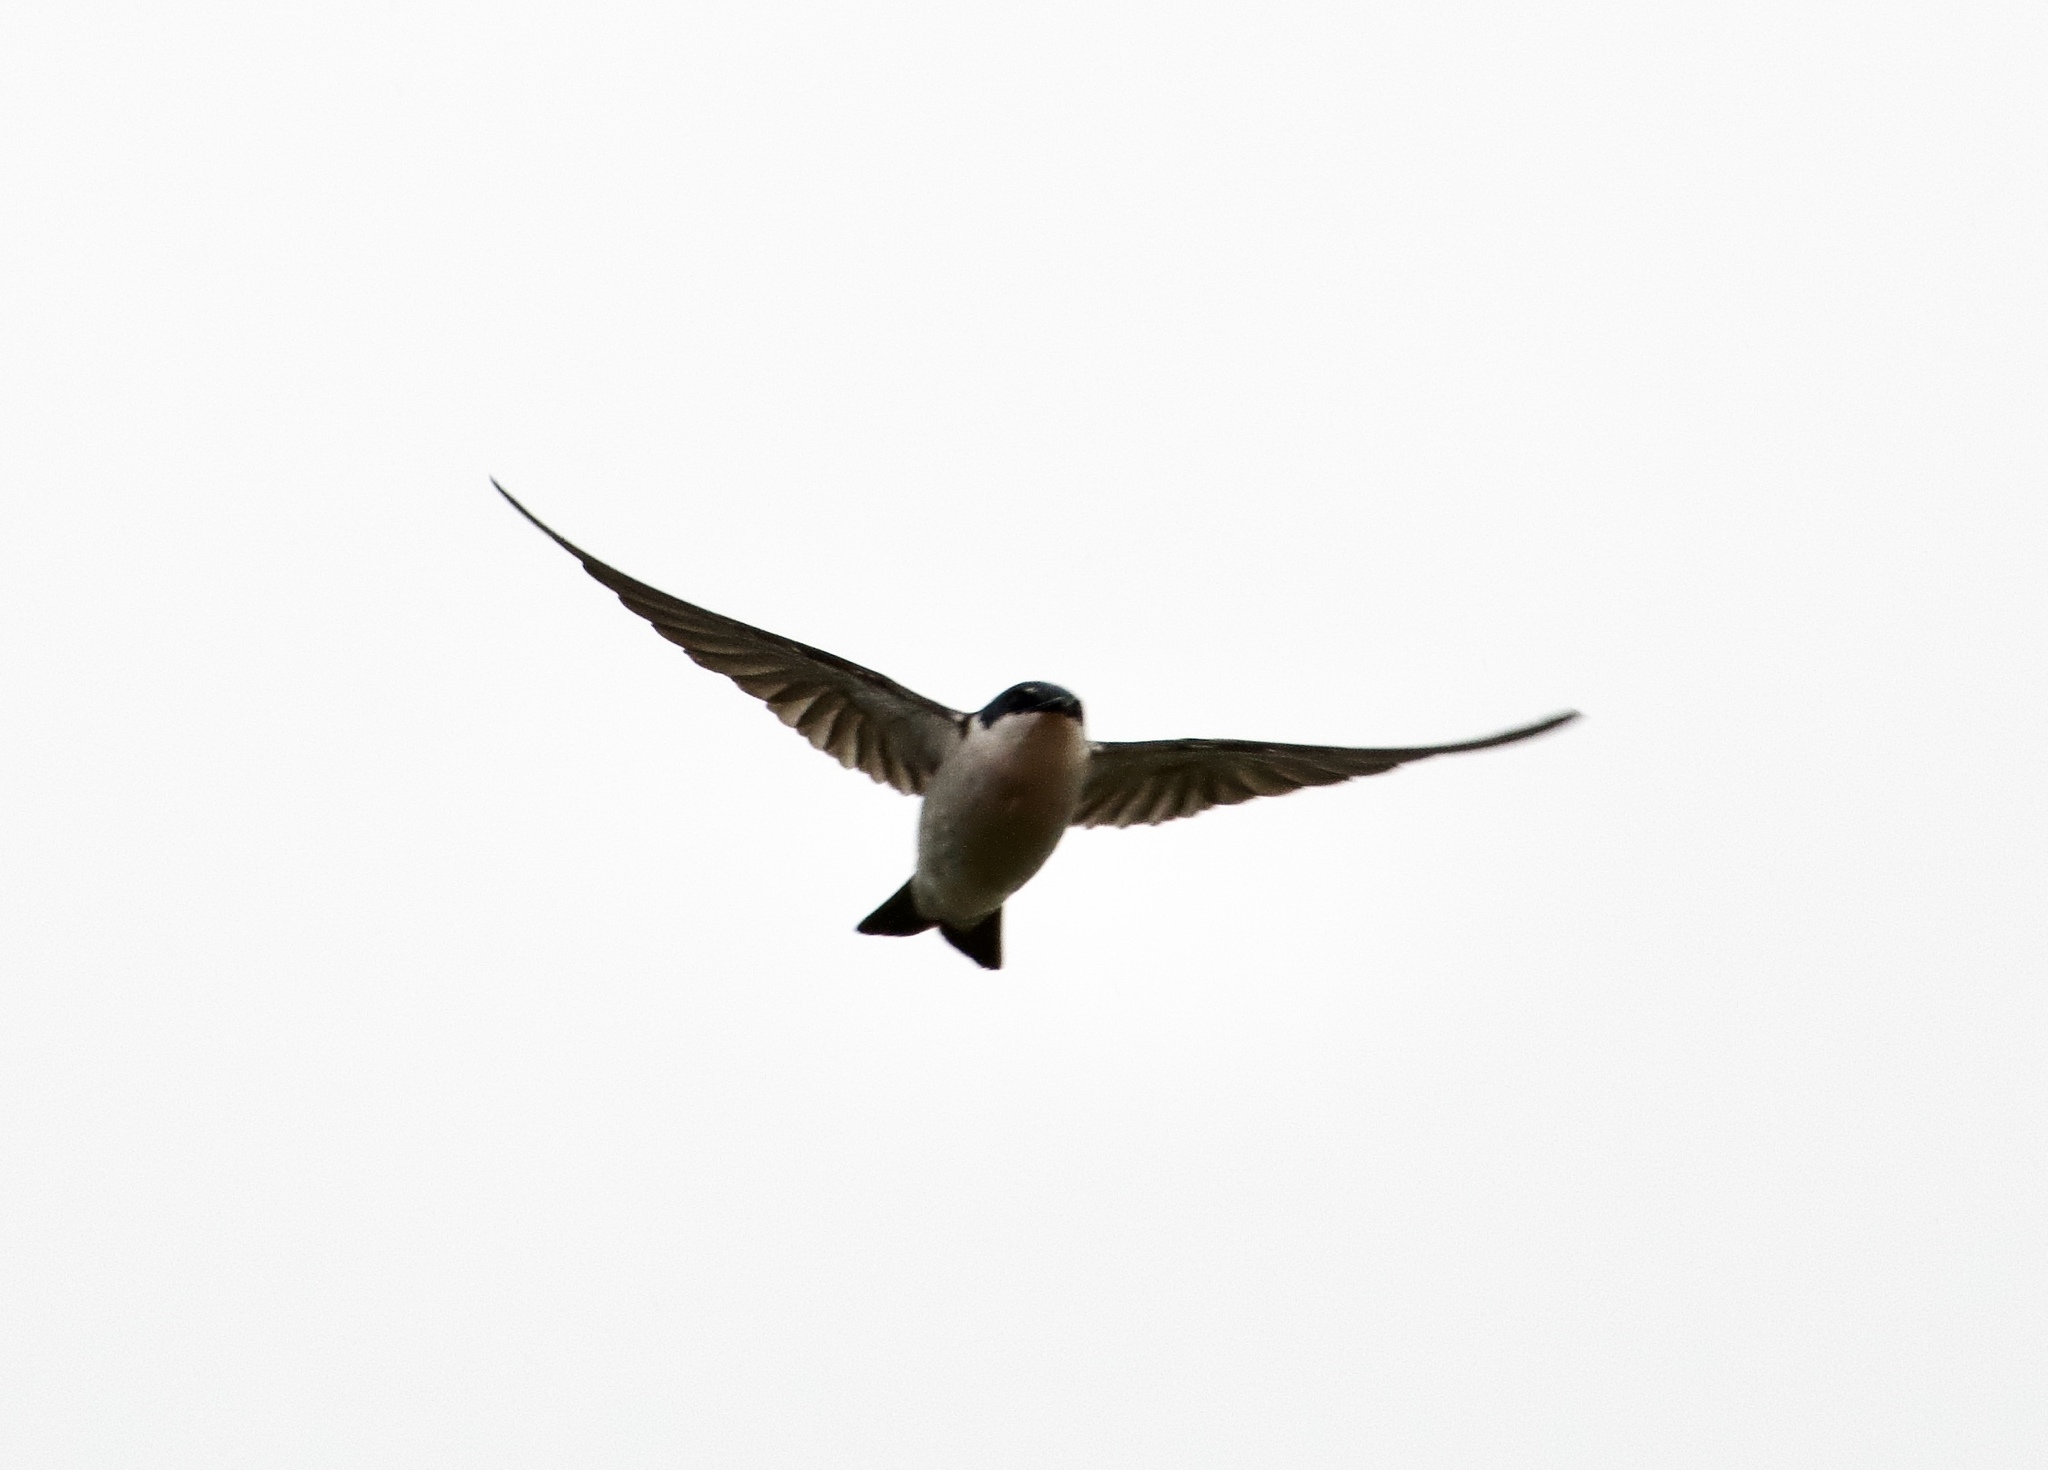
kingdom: Animalia
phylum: Chordata
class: Aves
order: Passeriformes
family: Hirundinidae
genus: Tachycineta
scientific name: Tachycineta albilinea
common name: Mangrove swallow
